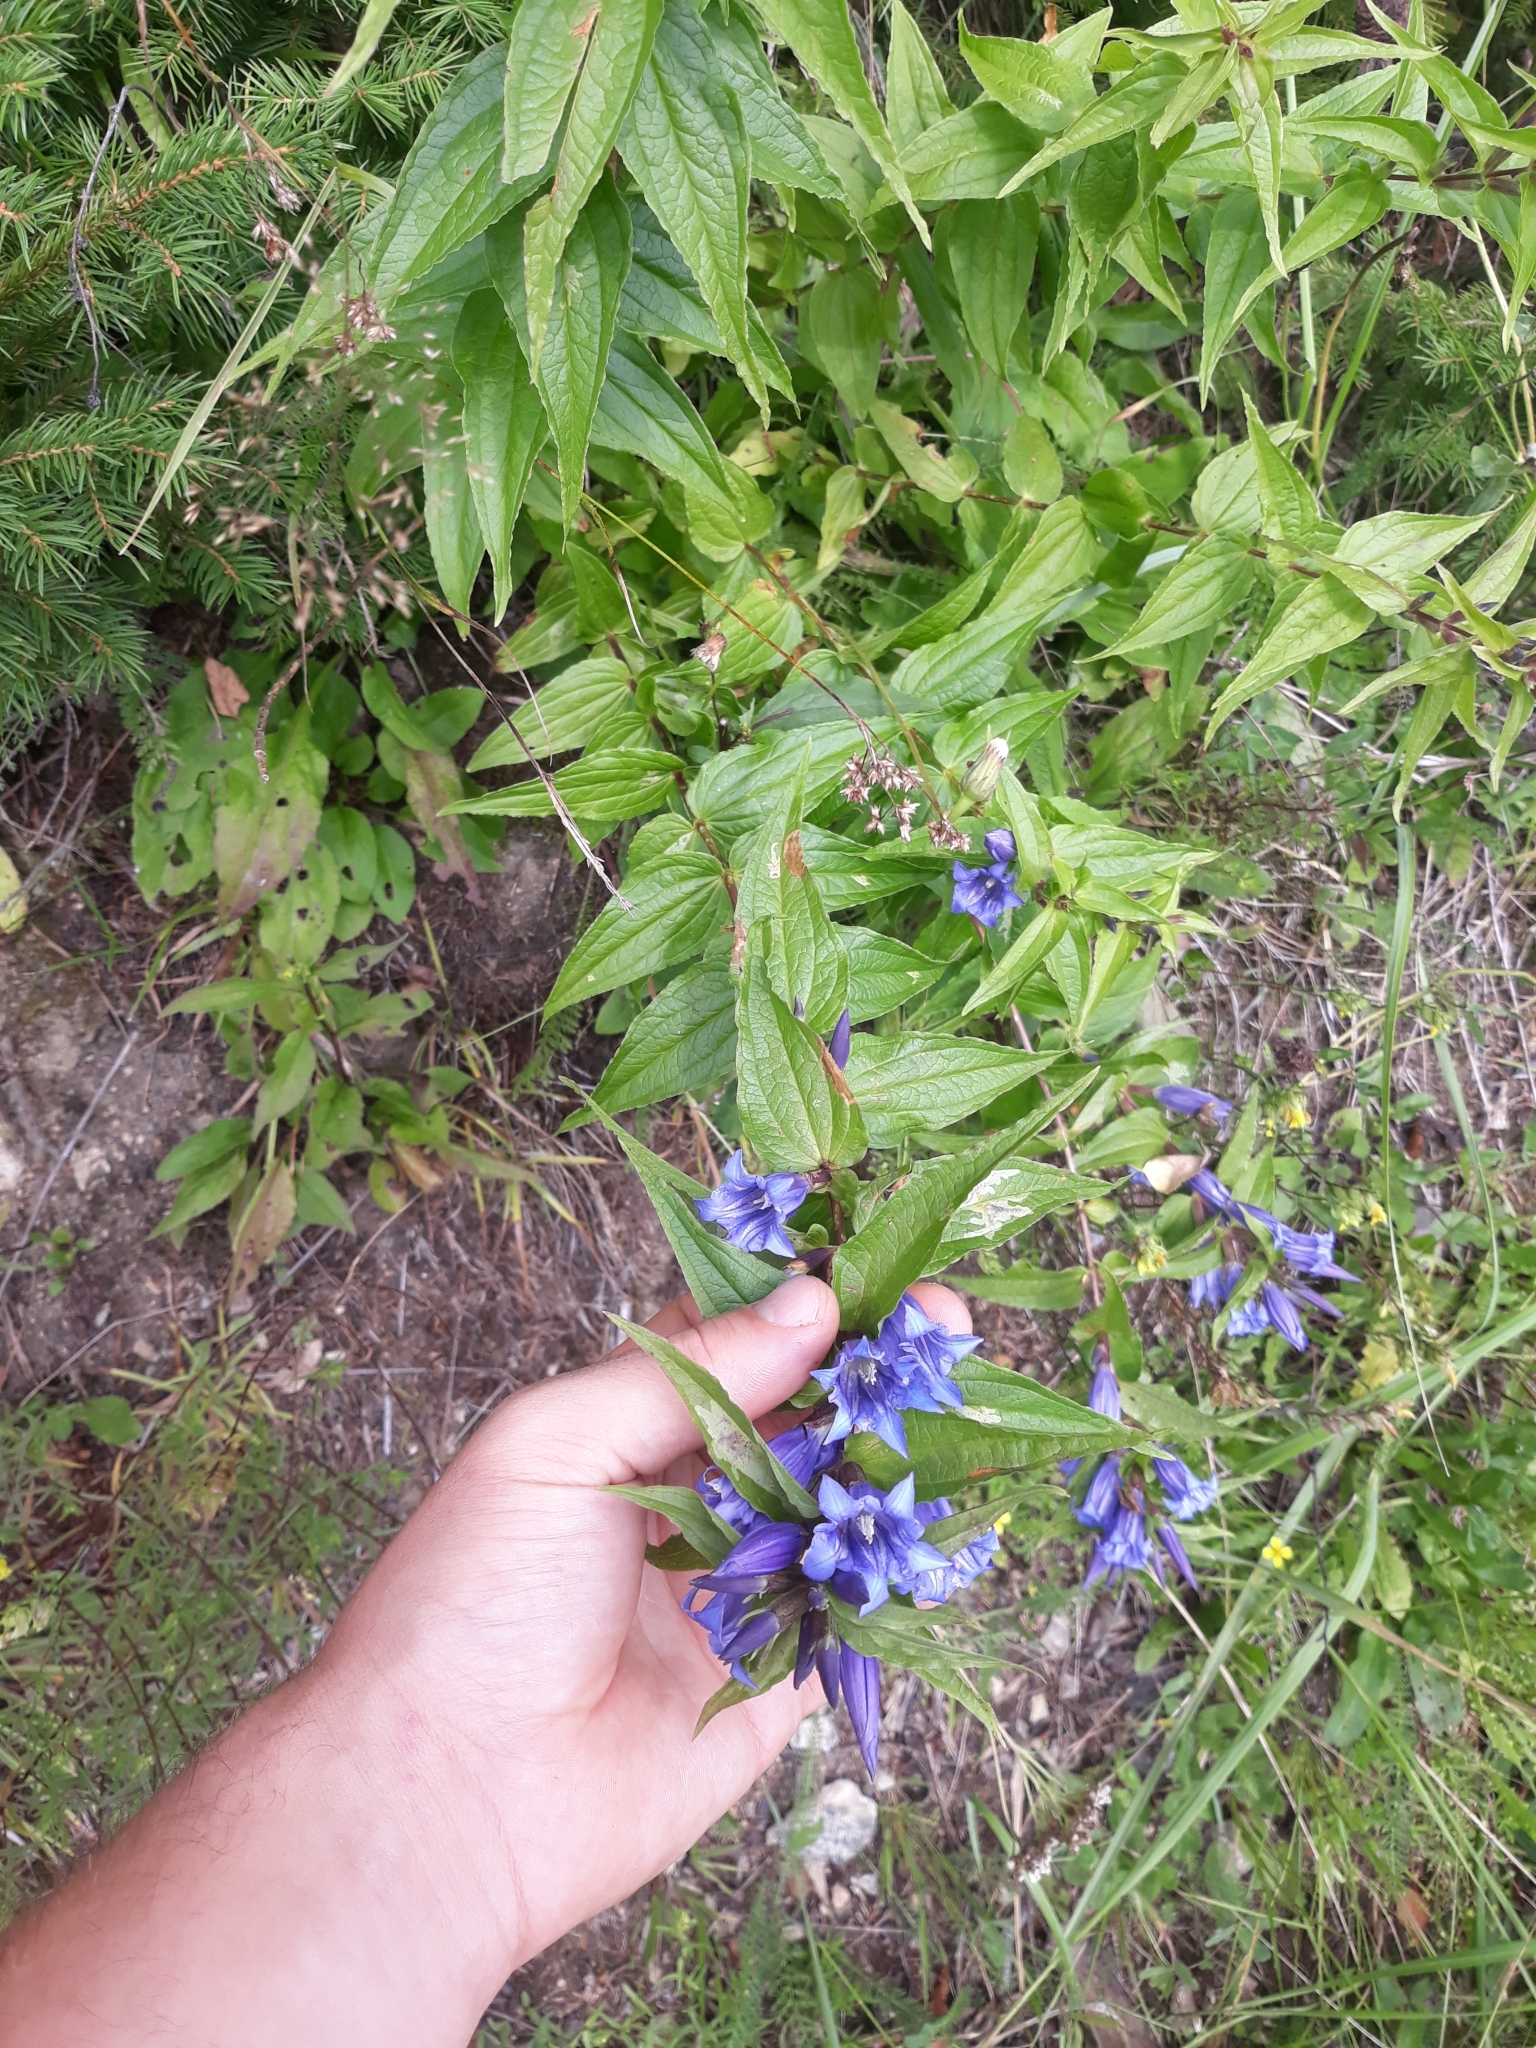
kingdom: Plantae
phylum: Tracheophyta
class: Magnoliopsida
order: Gentianales
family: Gentianaceae
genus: Gentiana
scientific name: Gentiana asclepiadea
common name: Willow gentian
